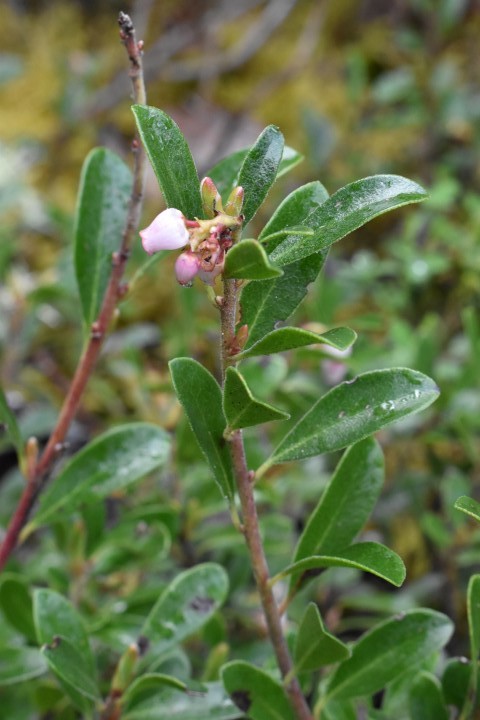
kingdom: Plantae
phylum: Tracheophyta
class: Magnoliopsida
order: Ericales
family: Ericaceae
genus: Arctostaphylos
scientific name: Arctostaphylos uva-ursi
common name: Bearberry
